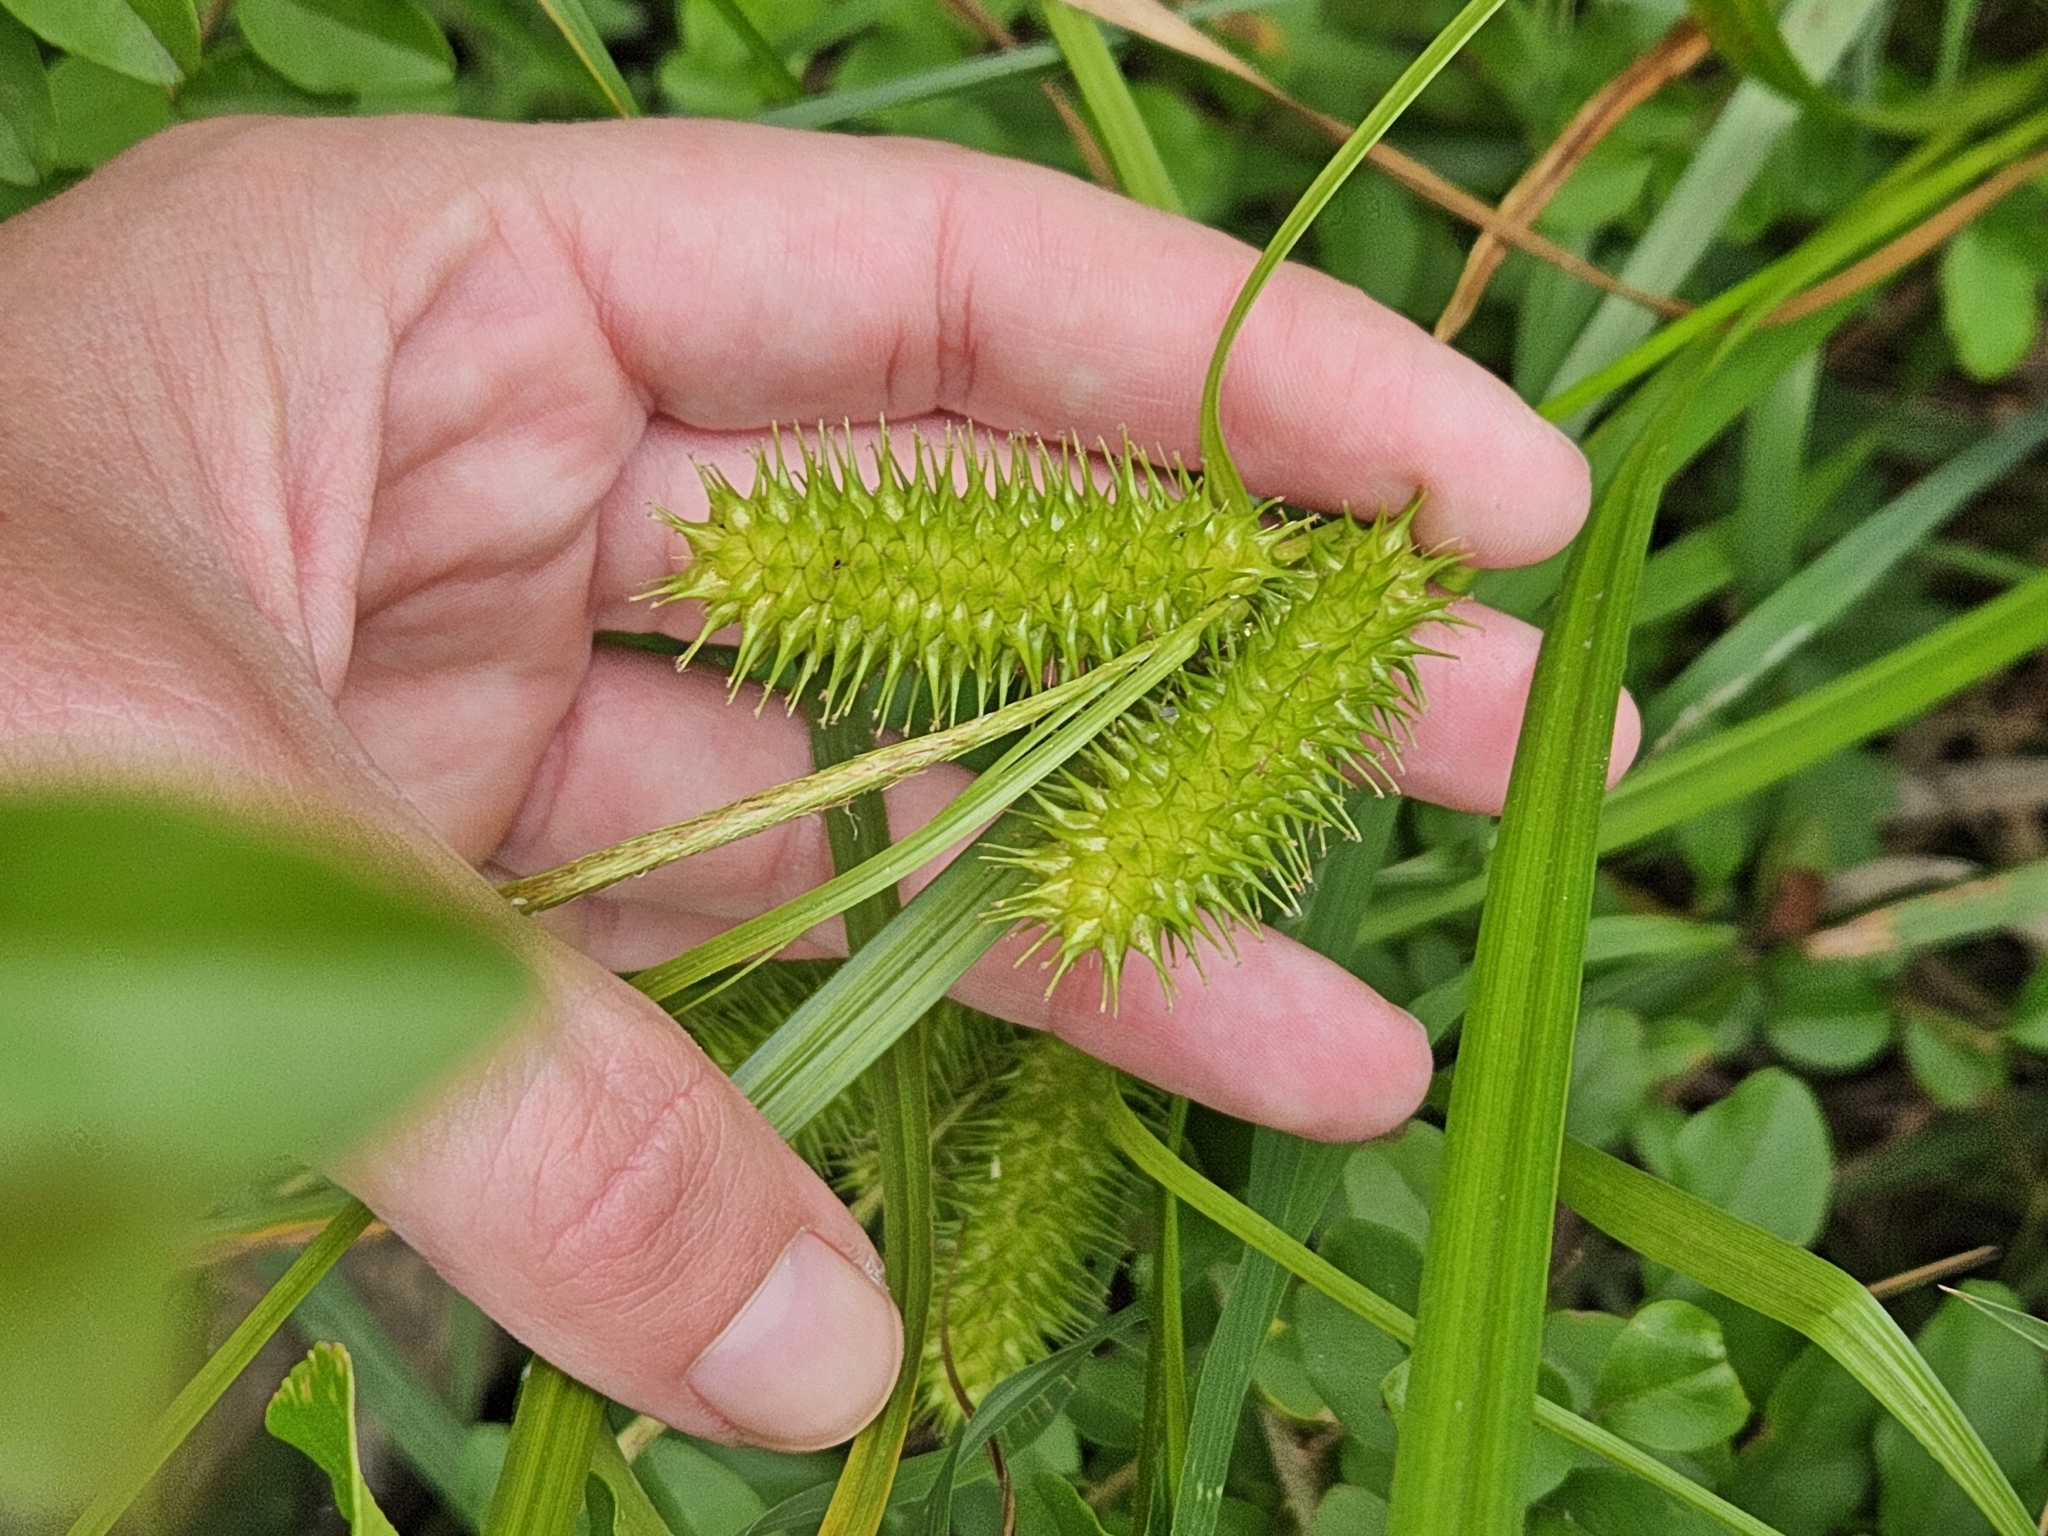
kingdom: Plantae
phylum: Tracheophyta
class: Liliopsida
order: Poales
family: Cyperaceae
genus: Carex
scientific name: Carex lurida
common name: Sallow sedge
